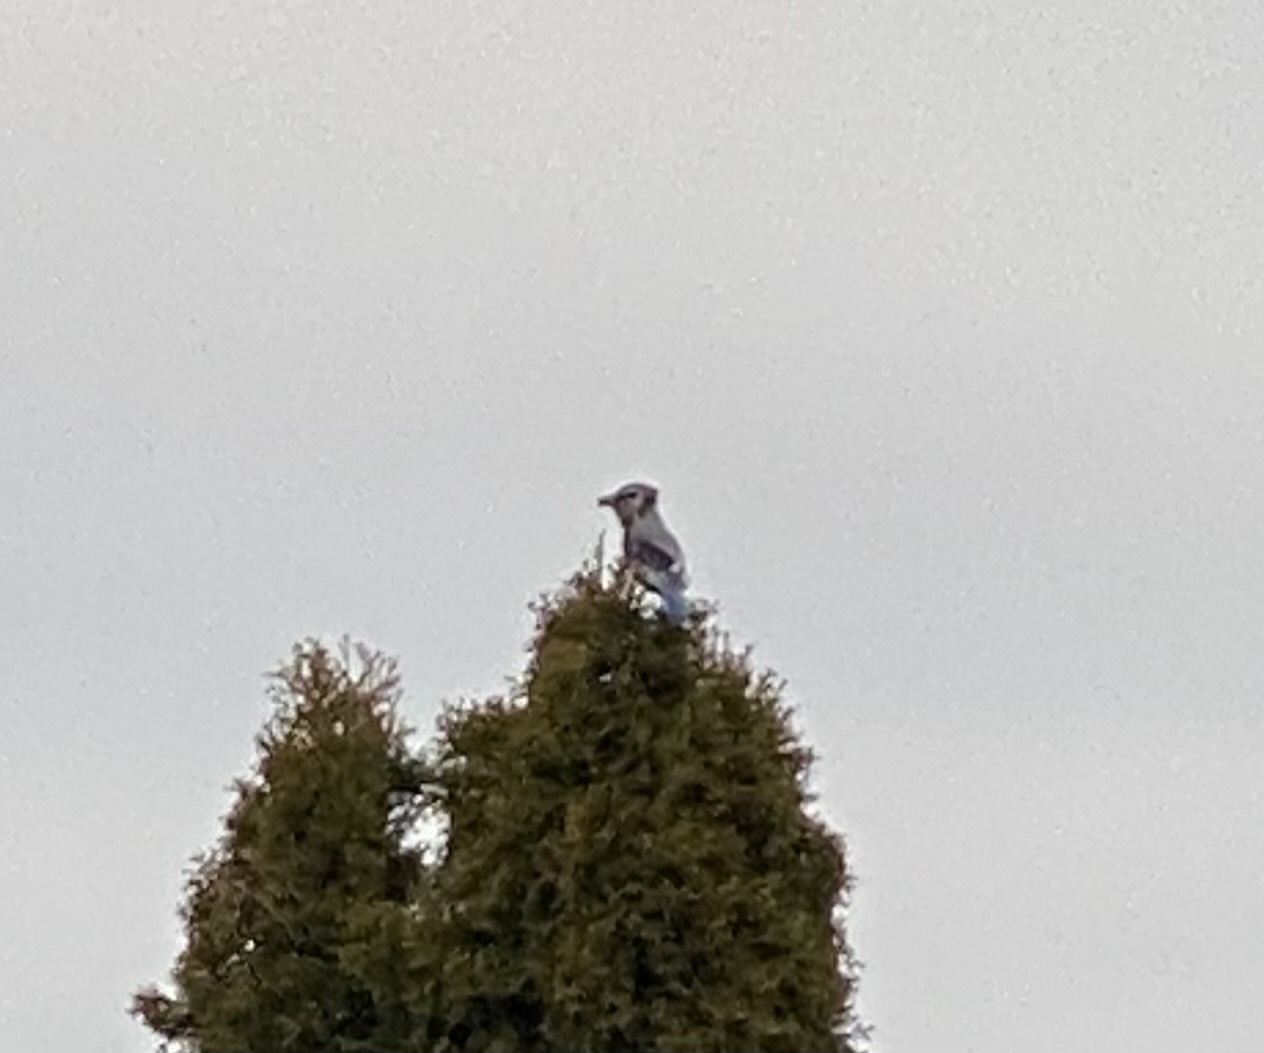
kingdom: Animalia
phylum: Chordata
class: Aves
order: Passeriformes
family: Corvidae
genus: Cyanocitta
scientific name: Cyanocitta cristata
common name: Blue jay
